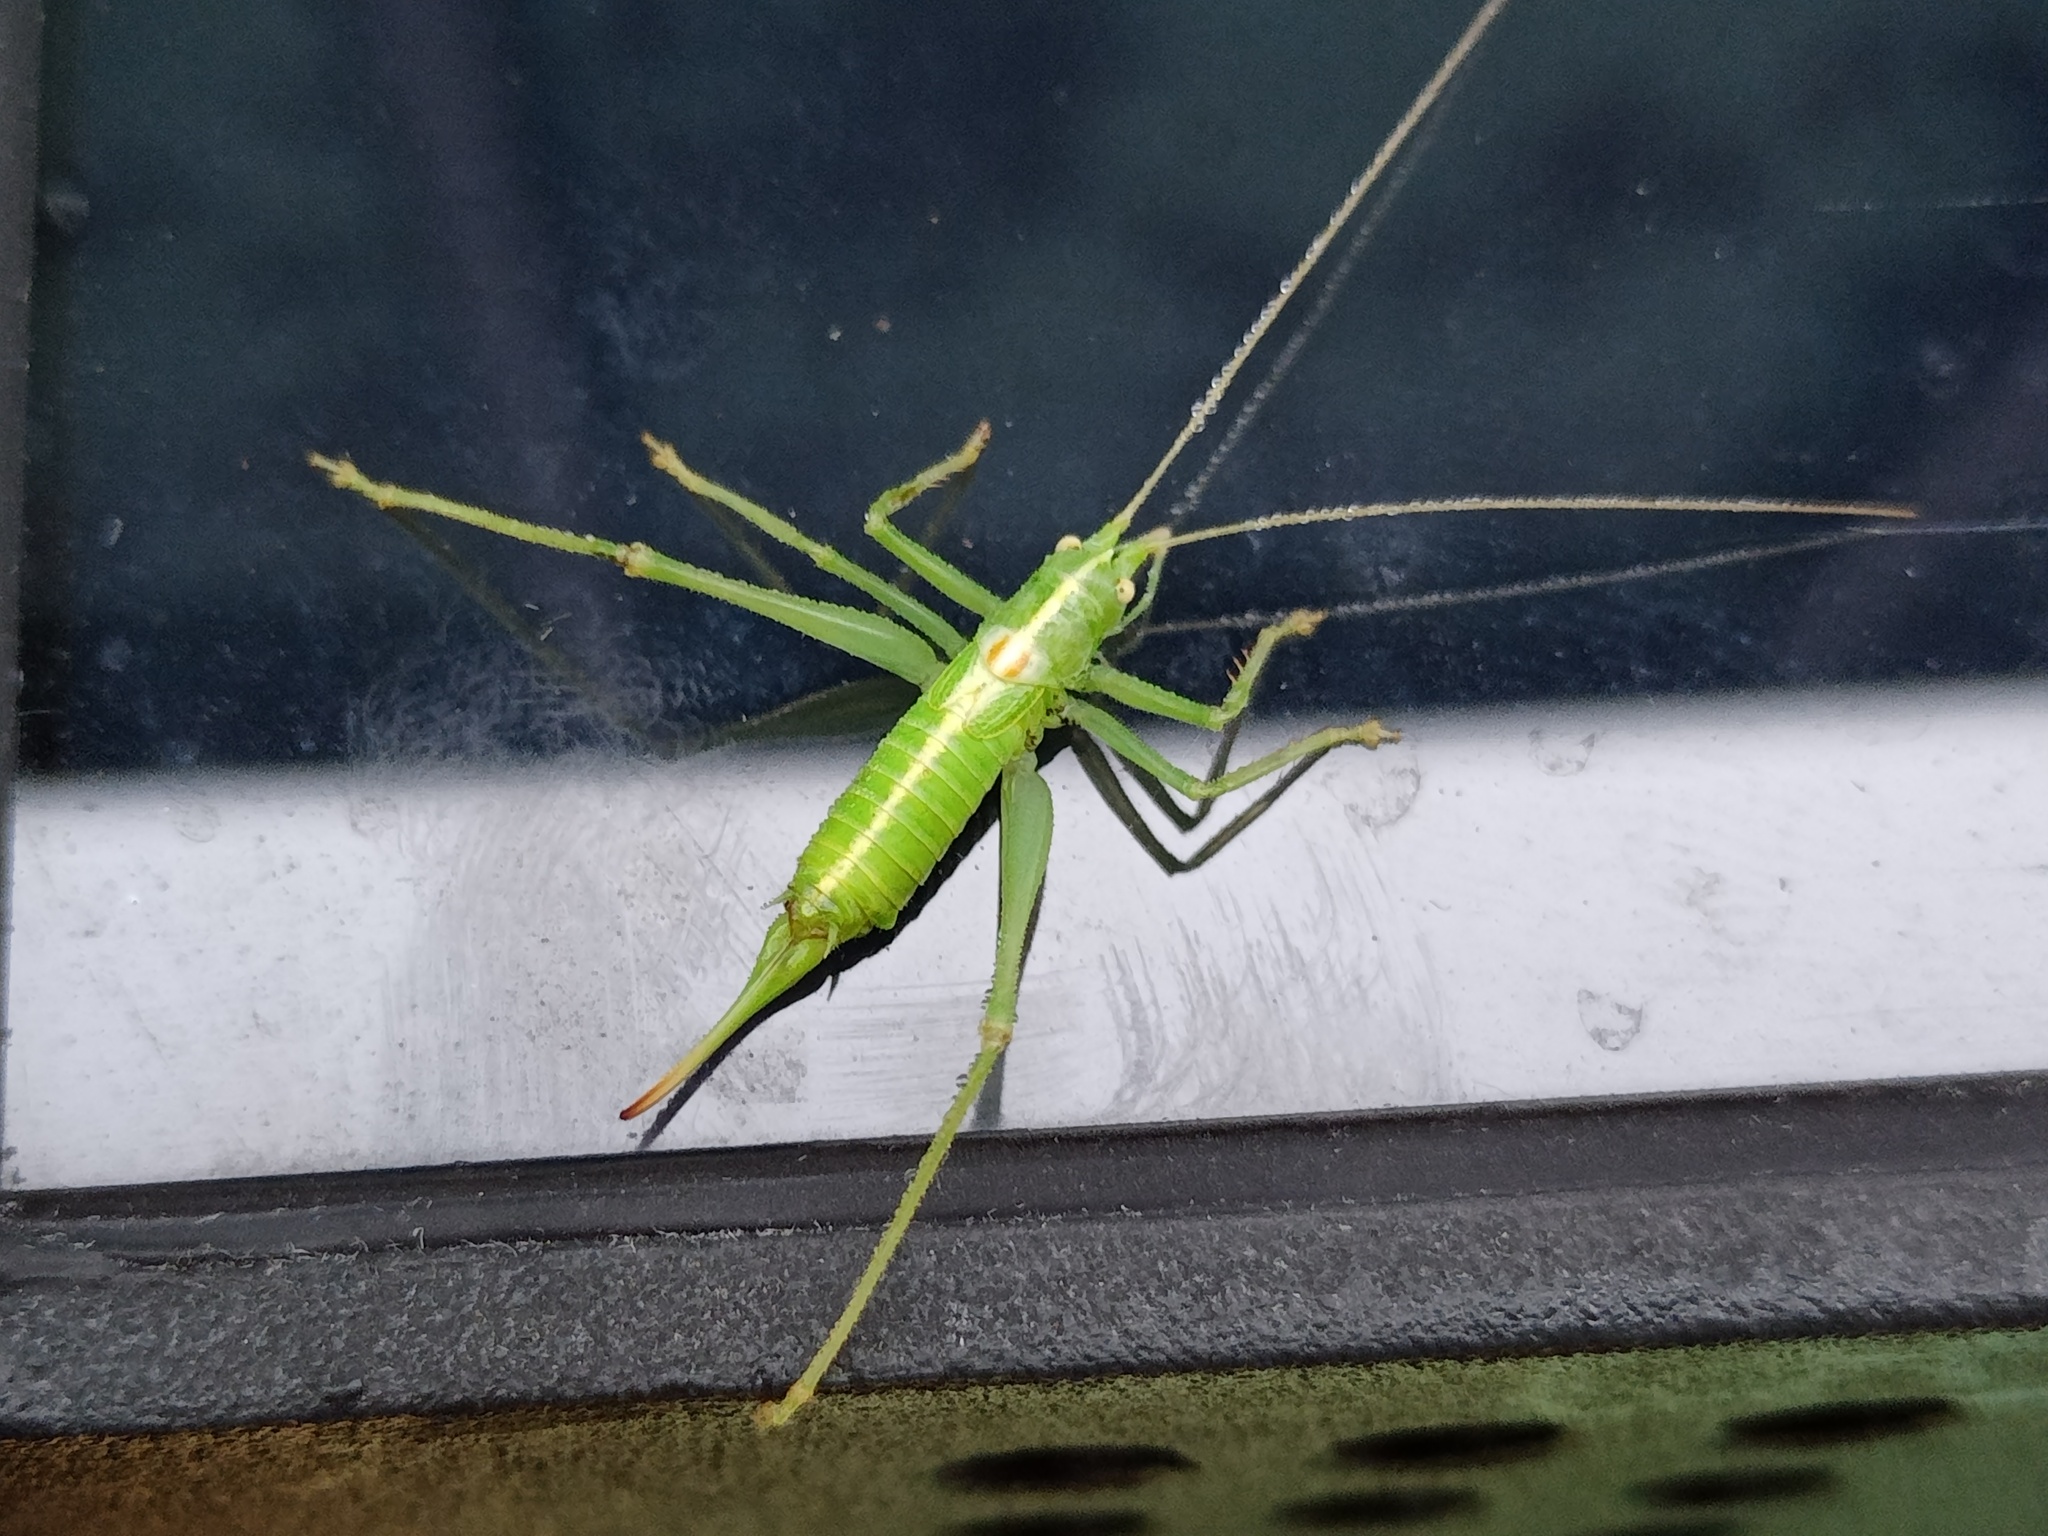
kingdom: Animalia
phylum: Arthropoda
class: Insecta
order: Orthoptera
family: Tettigoniidae
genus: Meconema
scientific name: Meconema meridionale
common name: Southern oak bush-cricket
